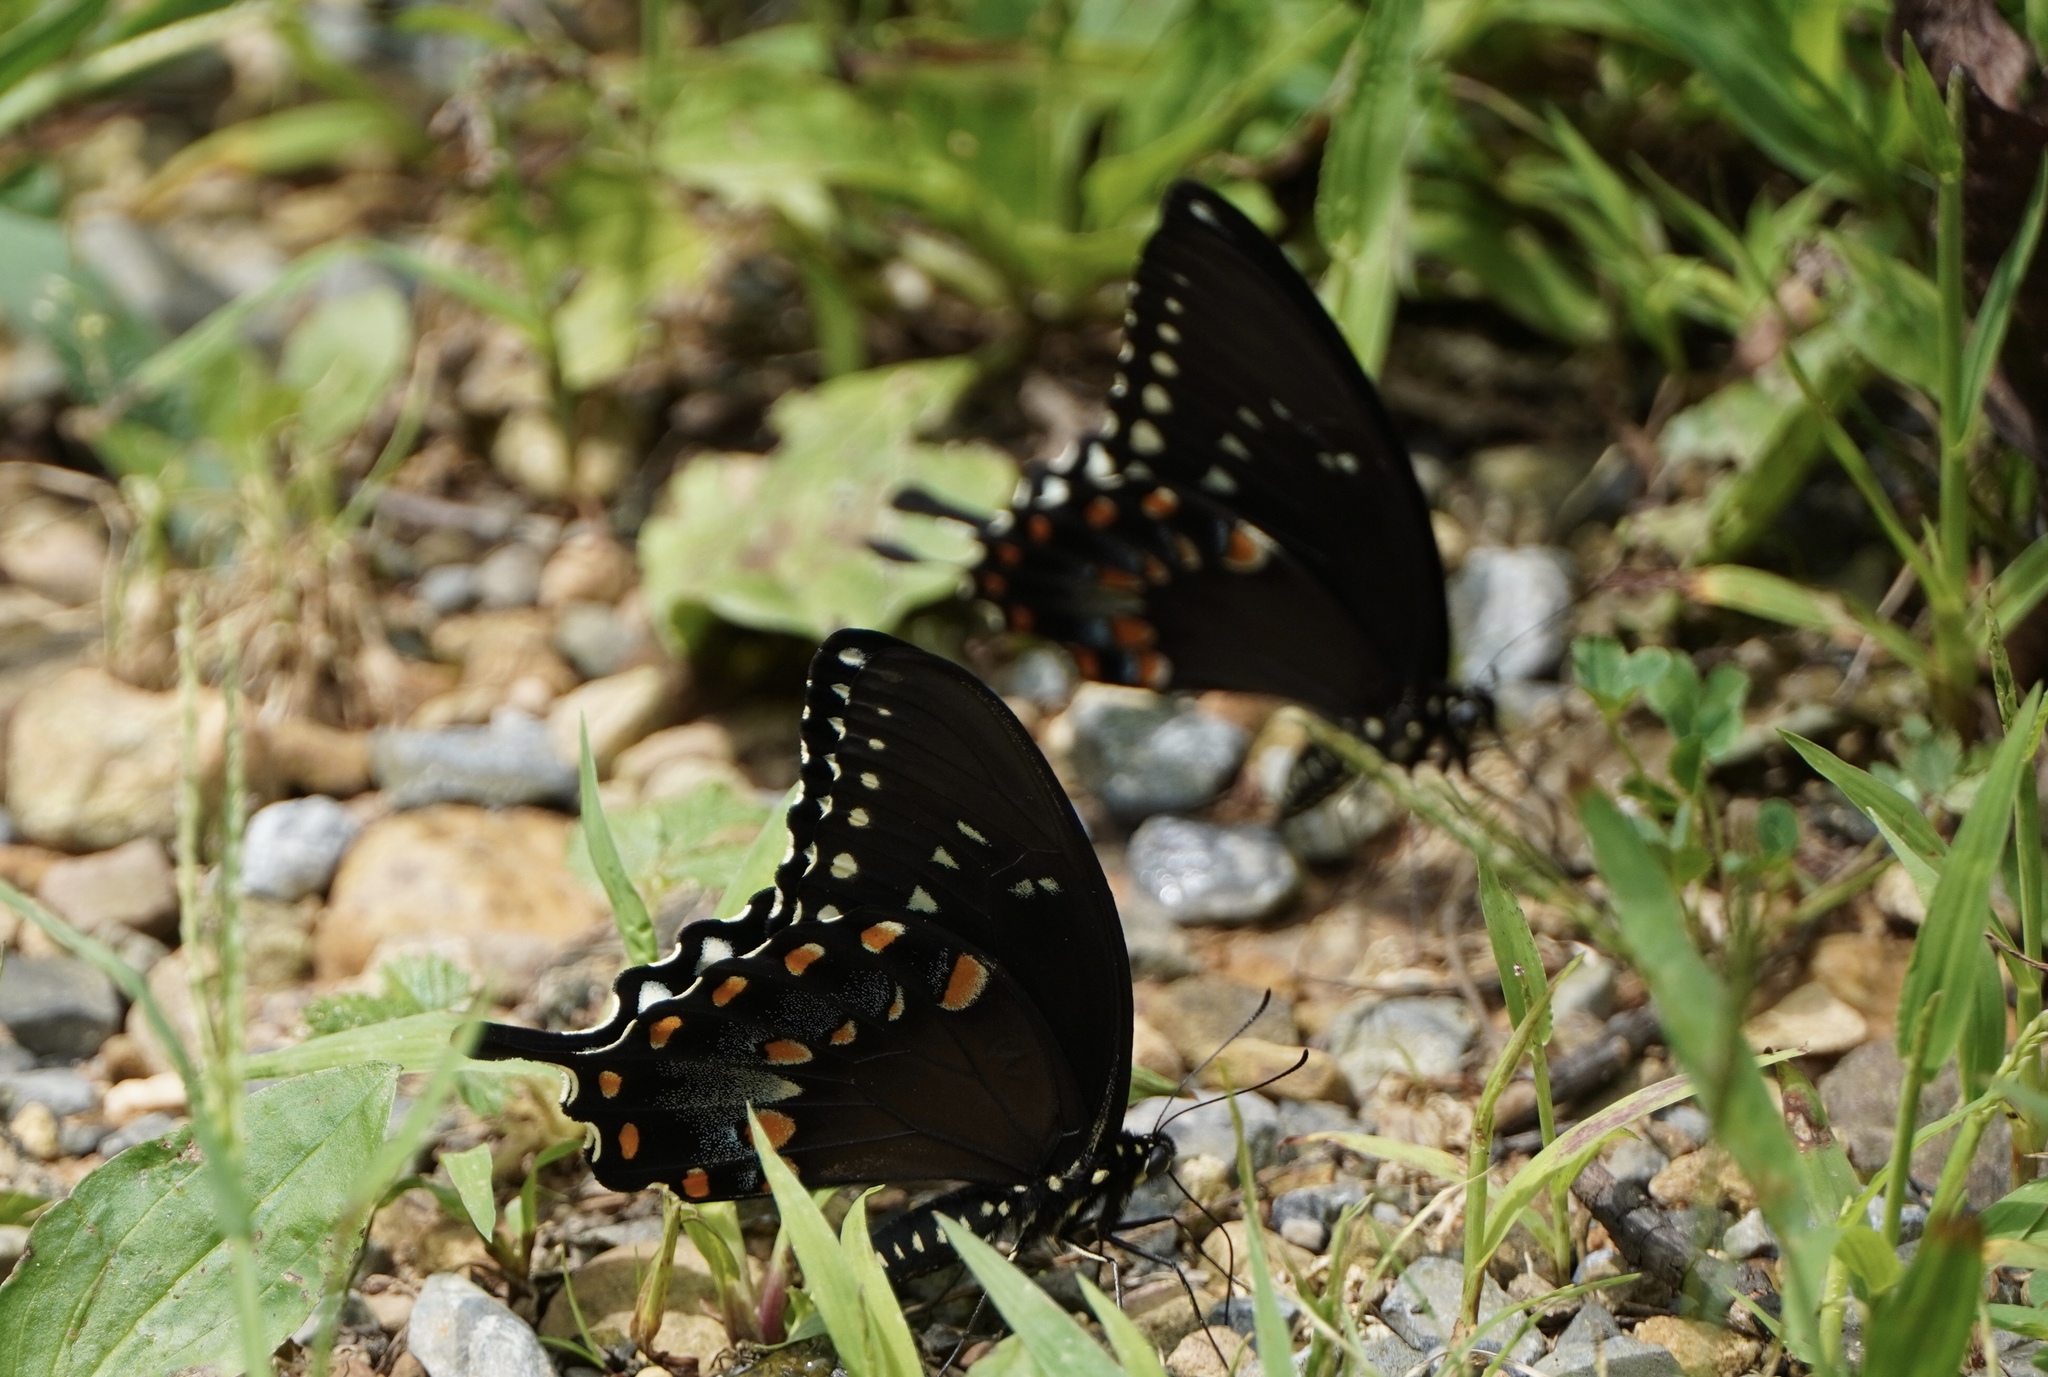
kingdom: Animalia
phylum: Arthropoda
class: Insecta
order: Lepidoptera
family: Papilionidae
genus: Papilio
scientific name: Papilio troilus
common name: Spicebush swallowtail
